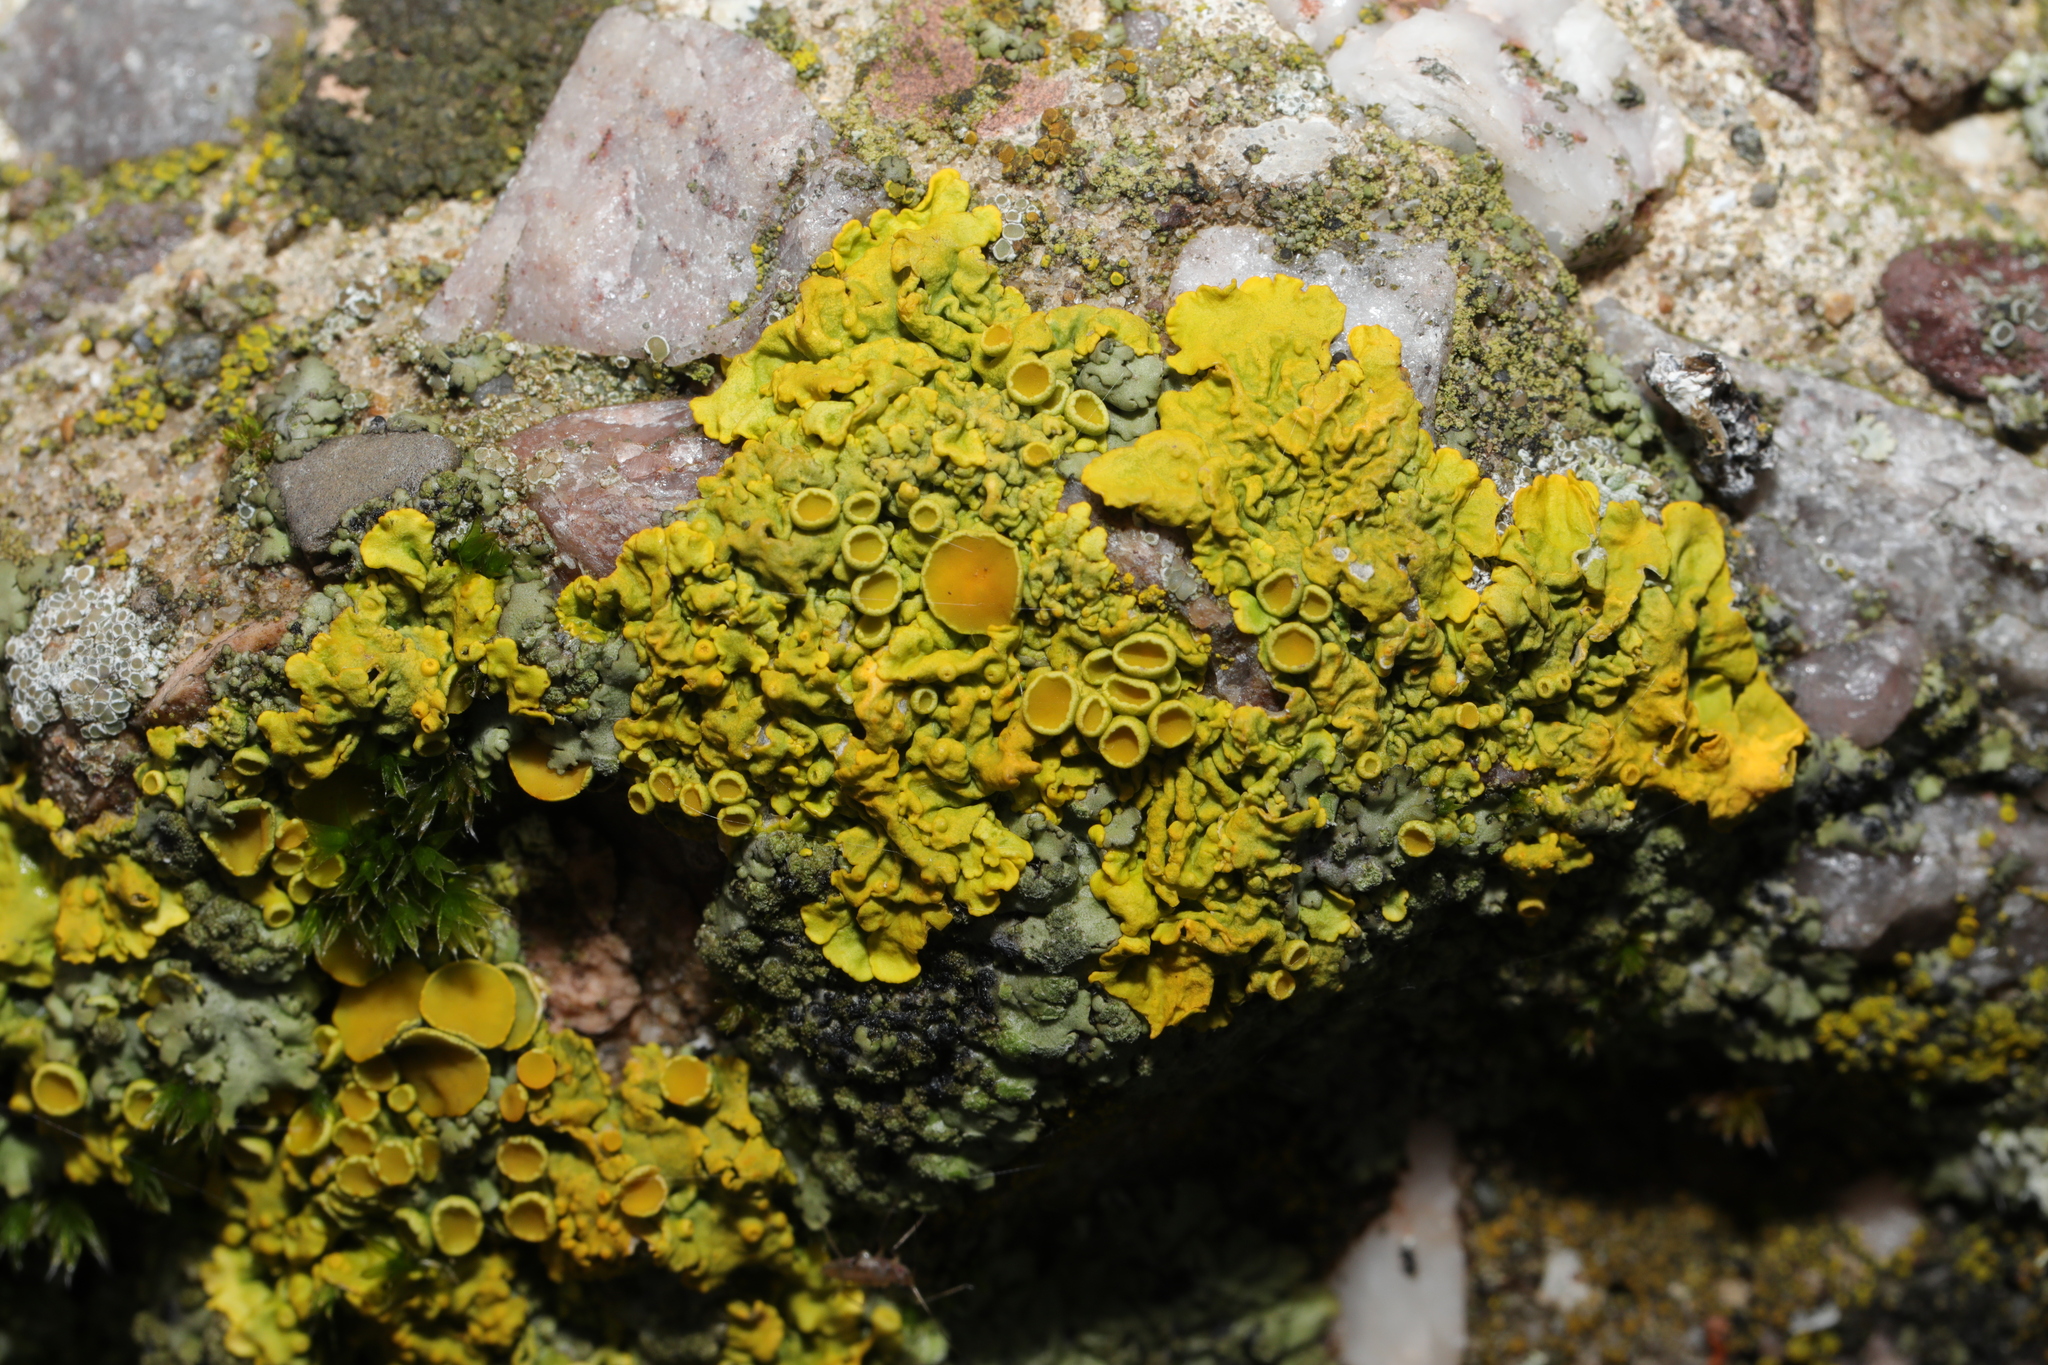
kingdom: Fungi
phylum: Ascomycota
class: Lecanoromycetes
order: Teloschistales
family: Teloschistaceae
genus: Xanthoria
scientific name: Xanthoria parietina
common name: Common orange lichen
